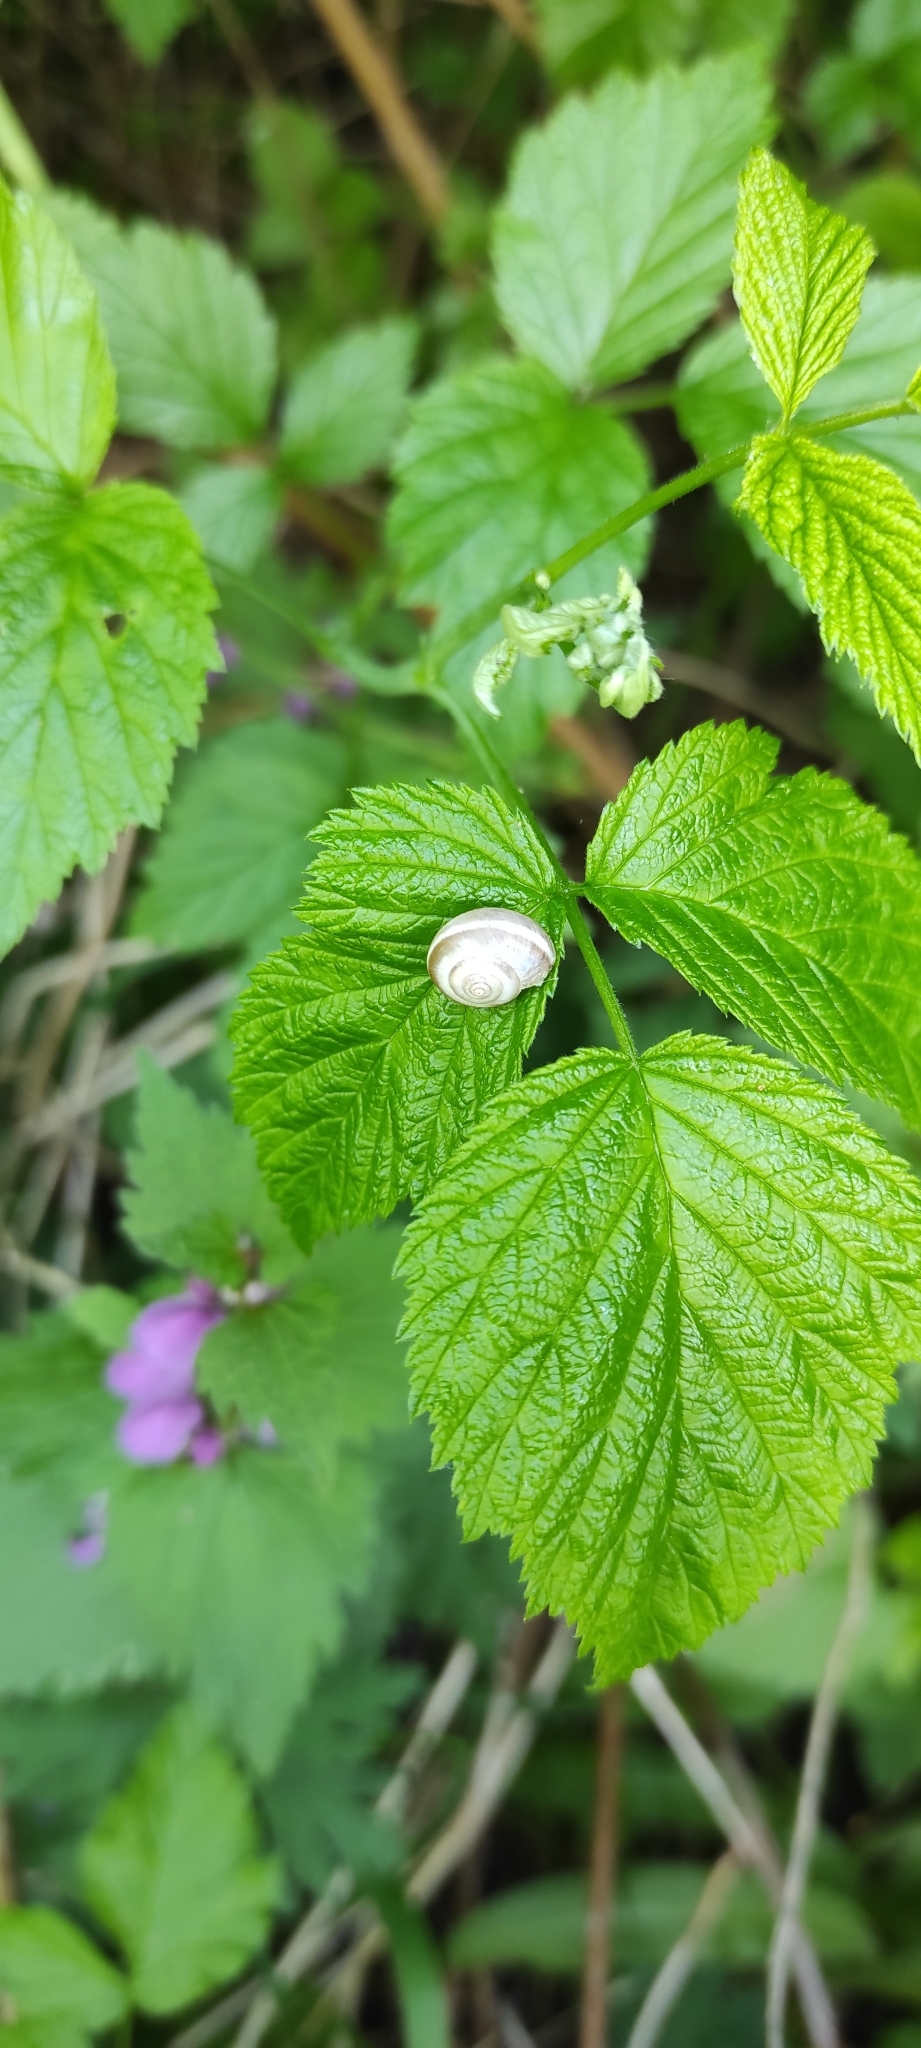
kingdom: Animalia
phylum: Mollusca
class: Gastropoda
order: Stylommatophora
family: Hygromiidae
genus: Harmozica
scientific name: Harmozica ravergiensis
